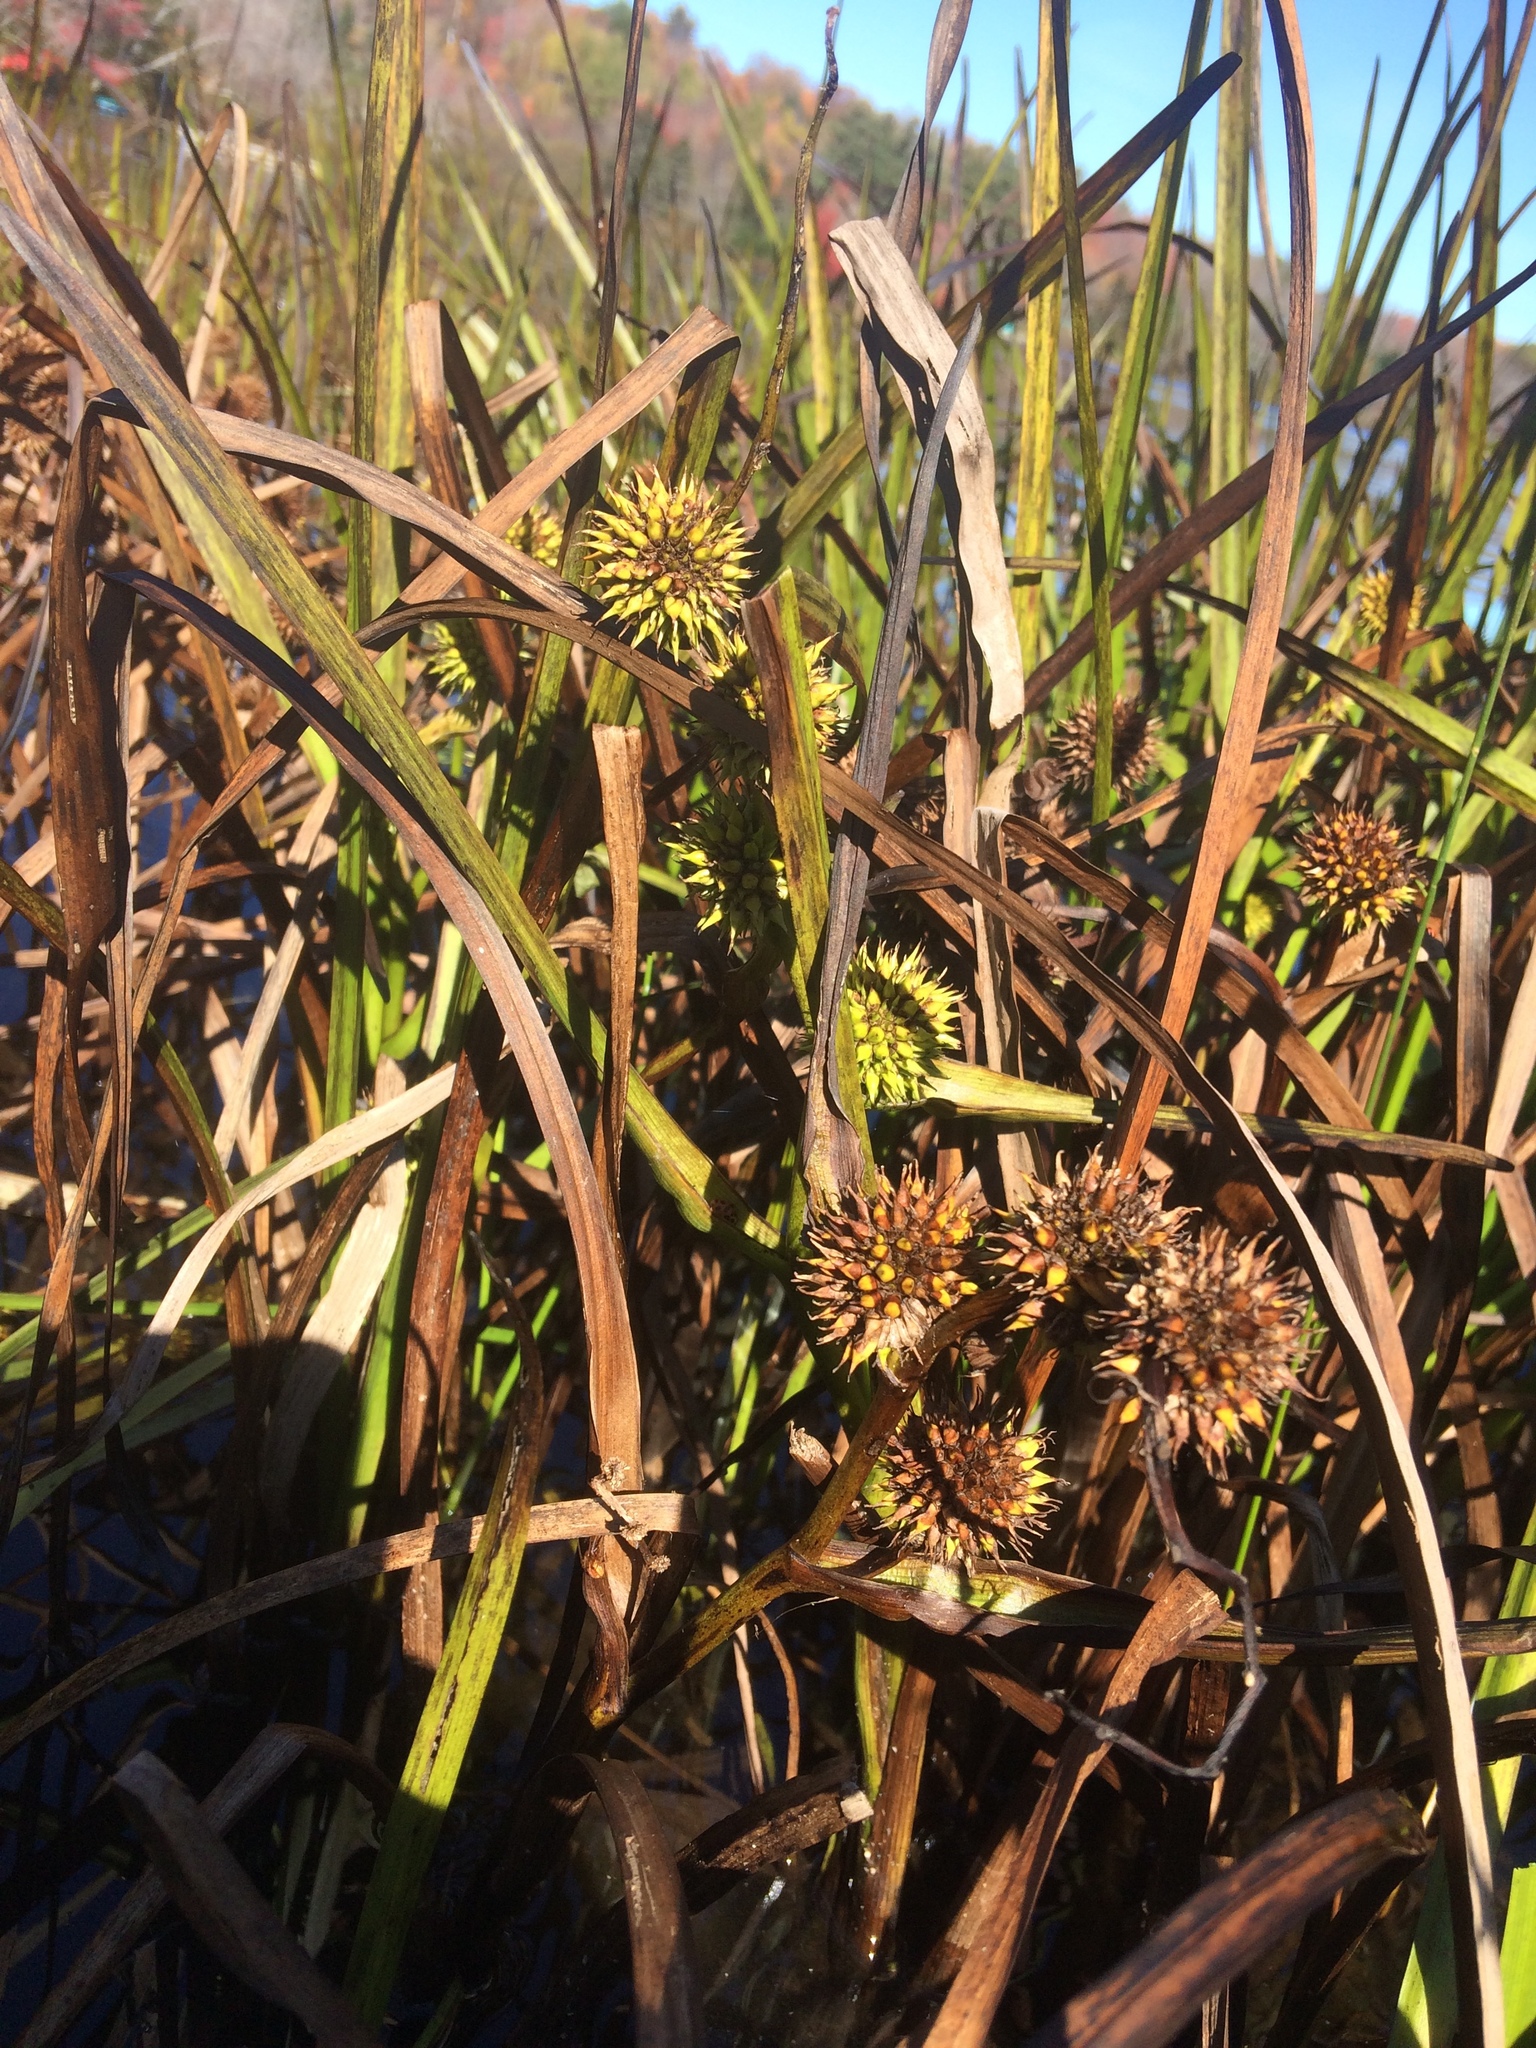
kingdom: Plantae
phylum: Tracheophyta
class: Liliopsida
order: Poales
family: Typhaceae
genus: Sparganium
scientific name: Sparganium americanum
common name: American burreed
